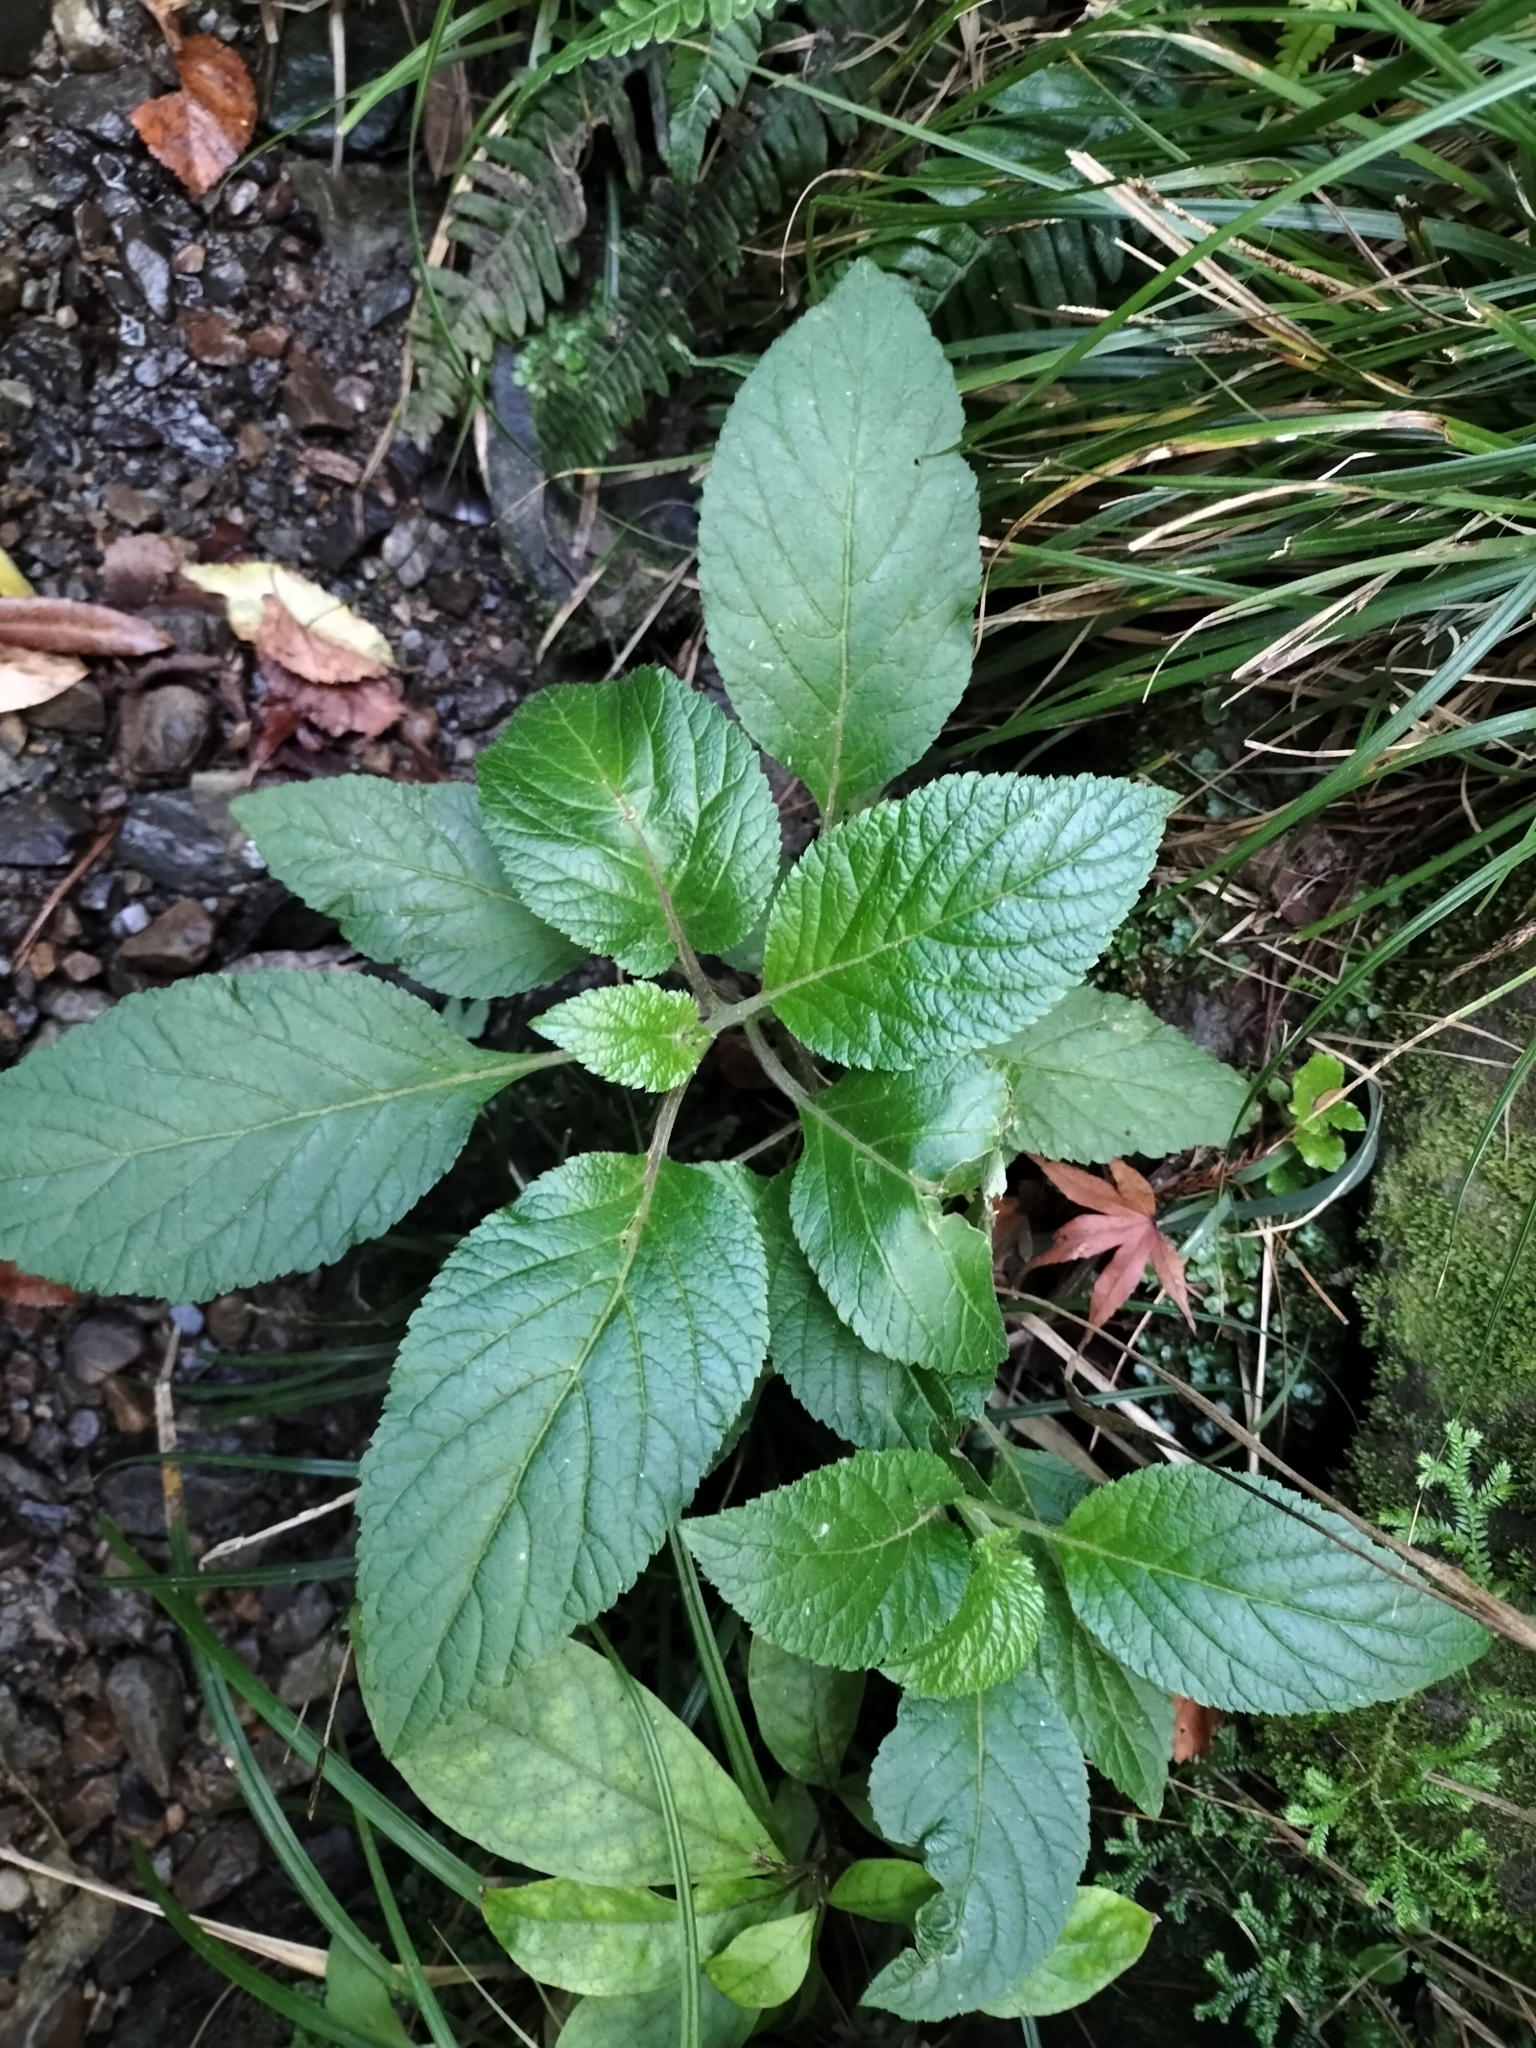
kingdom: Plantae
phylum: Tracheophyta
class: Magnoliopsida
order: Asterales
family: Campanulaceae
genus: Lobelia
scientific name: Lobelia physaloides
